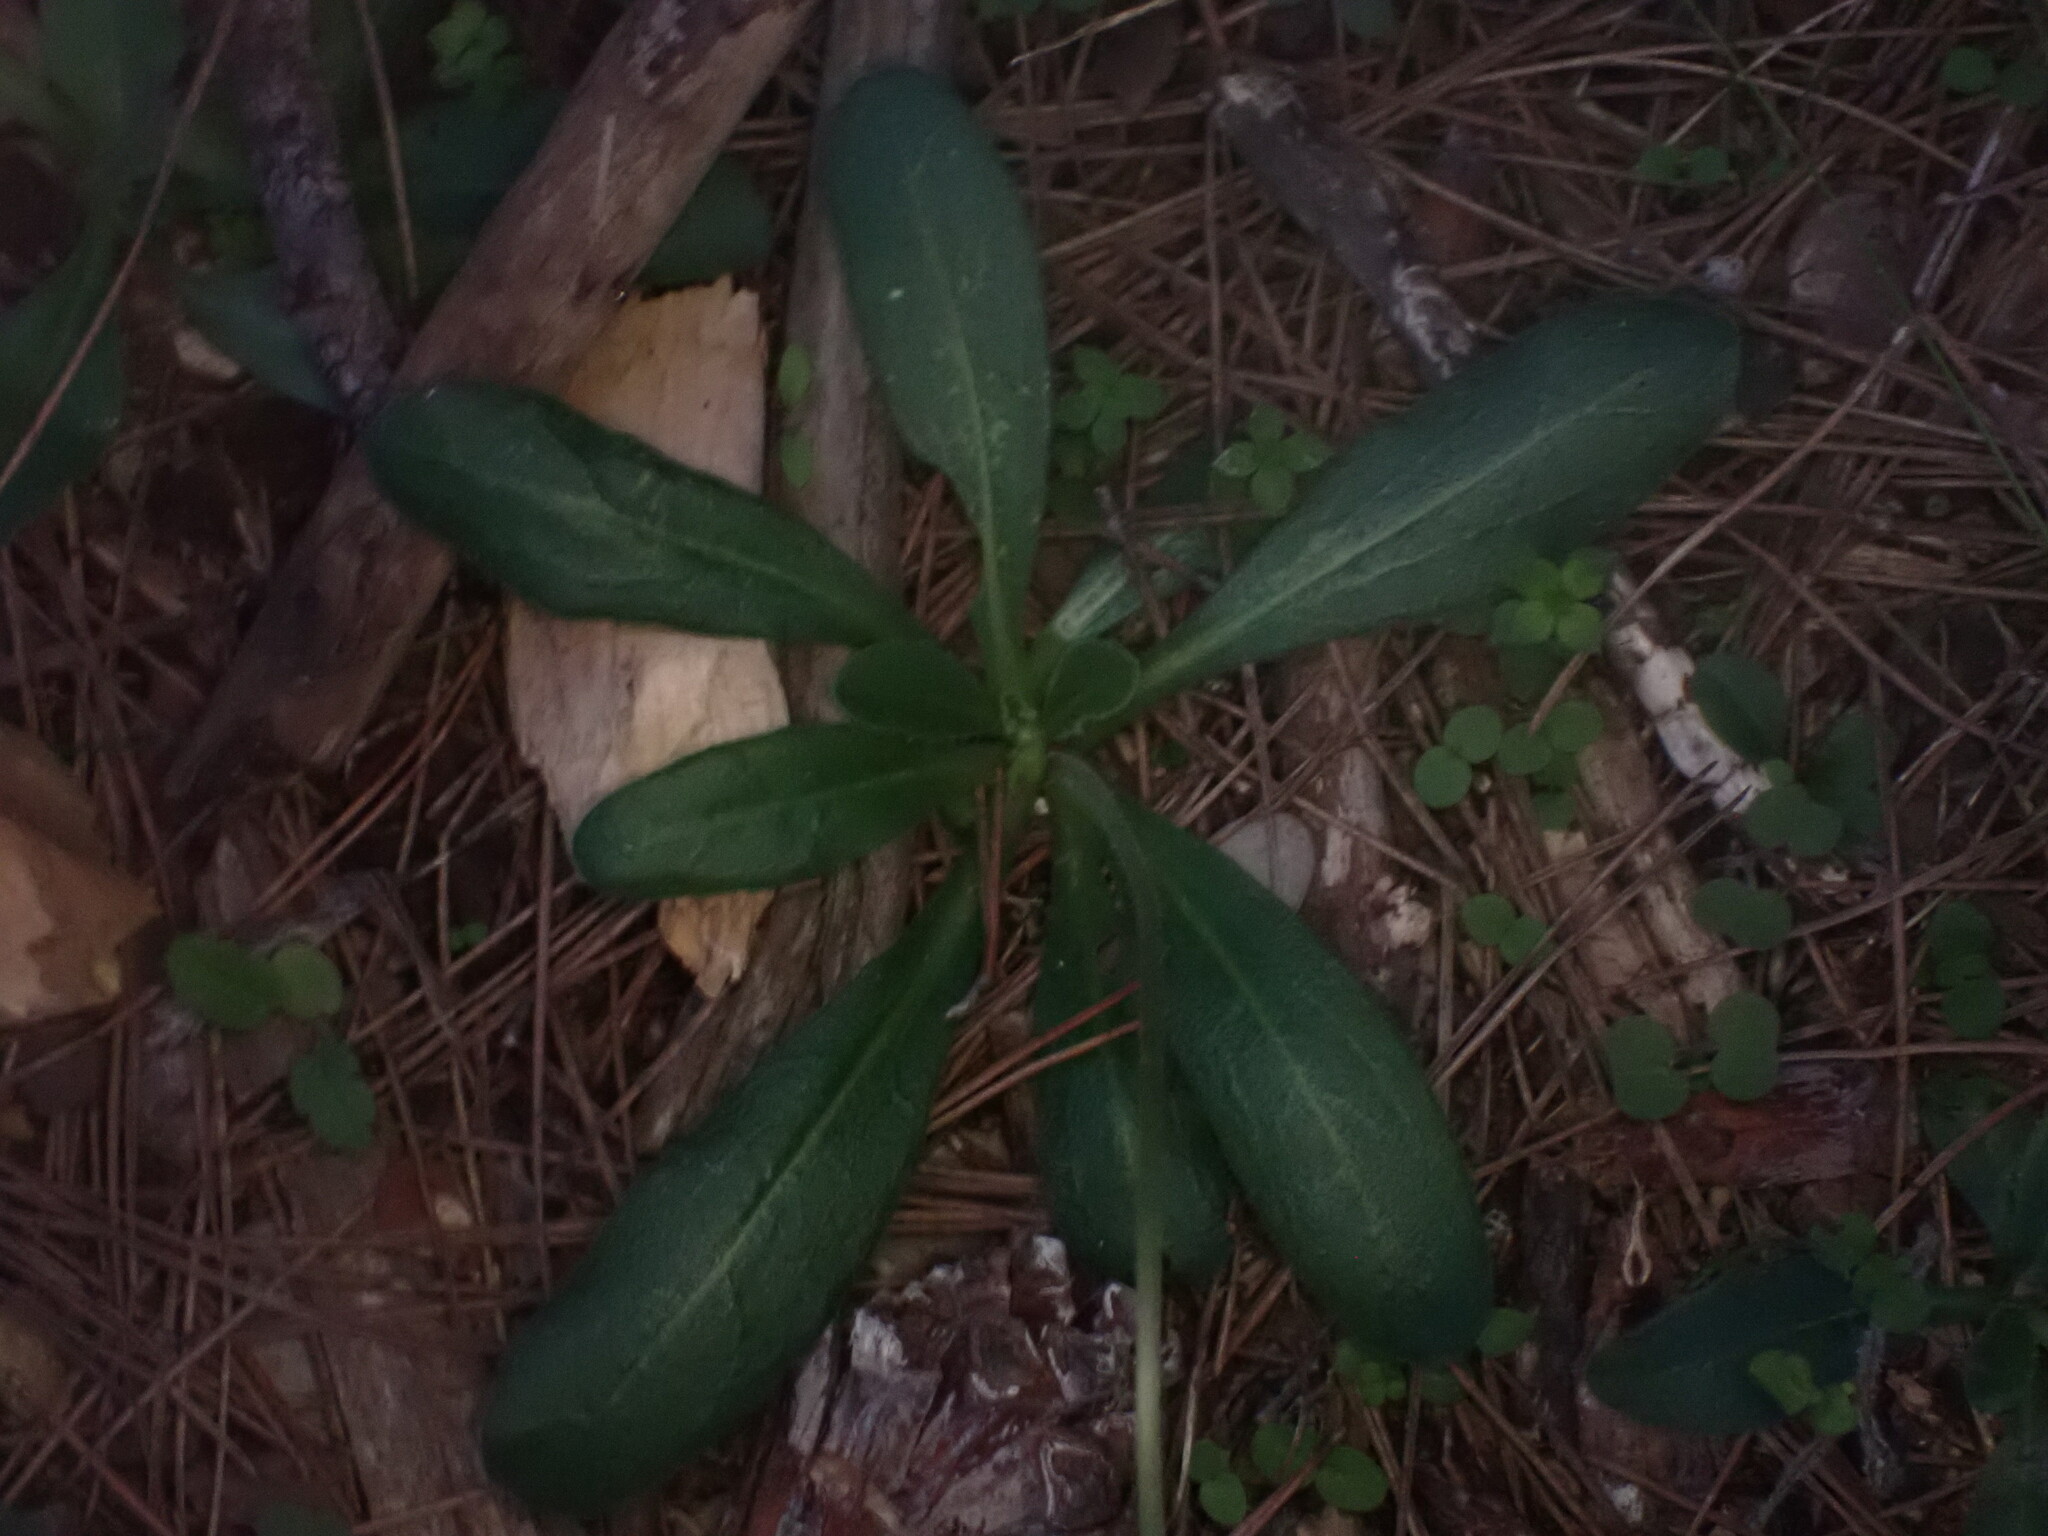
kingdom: Plantae
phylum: Tracheophyta
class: Magnoliopsida
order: Asterales
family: Asteraceae
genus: Bellis
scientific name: Bellis sylvestris
